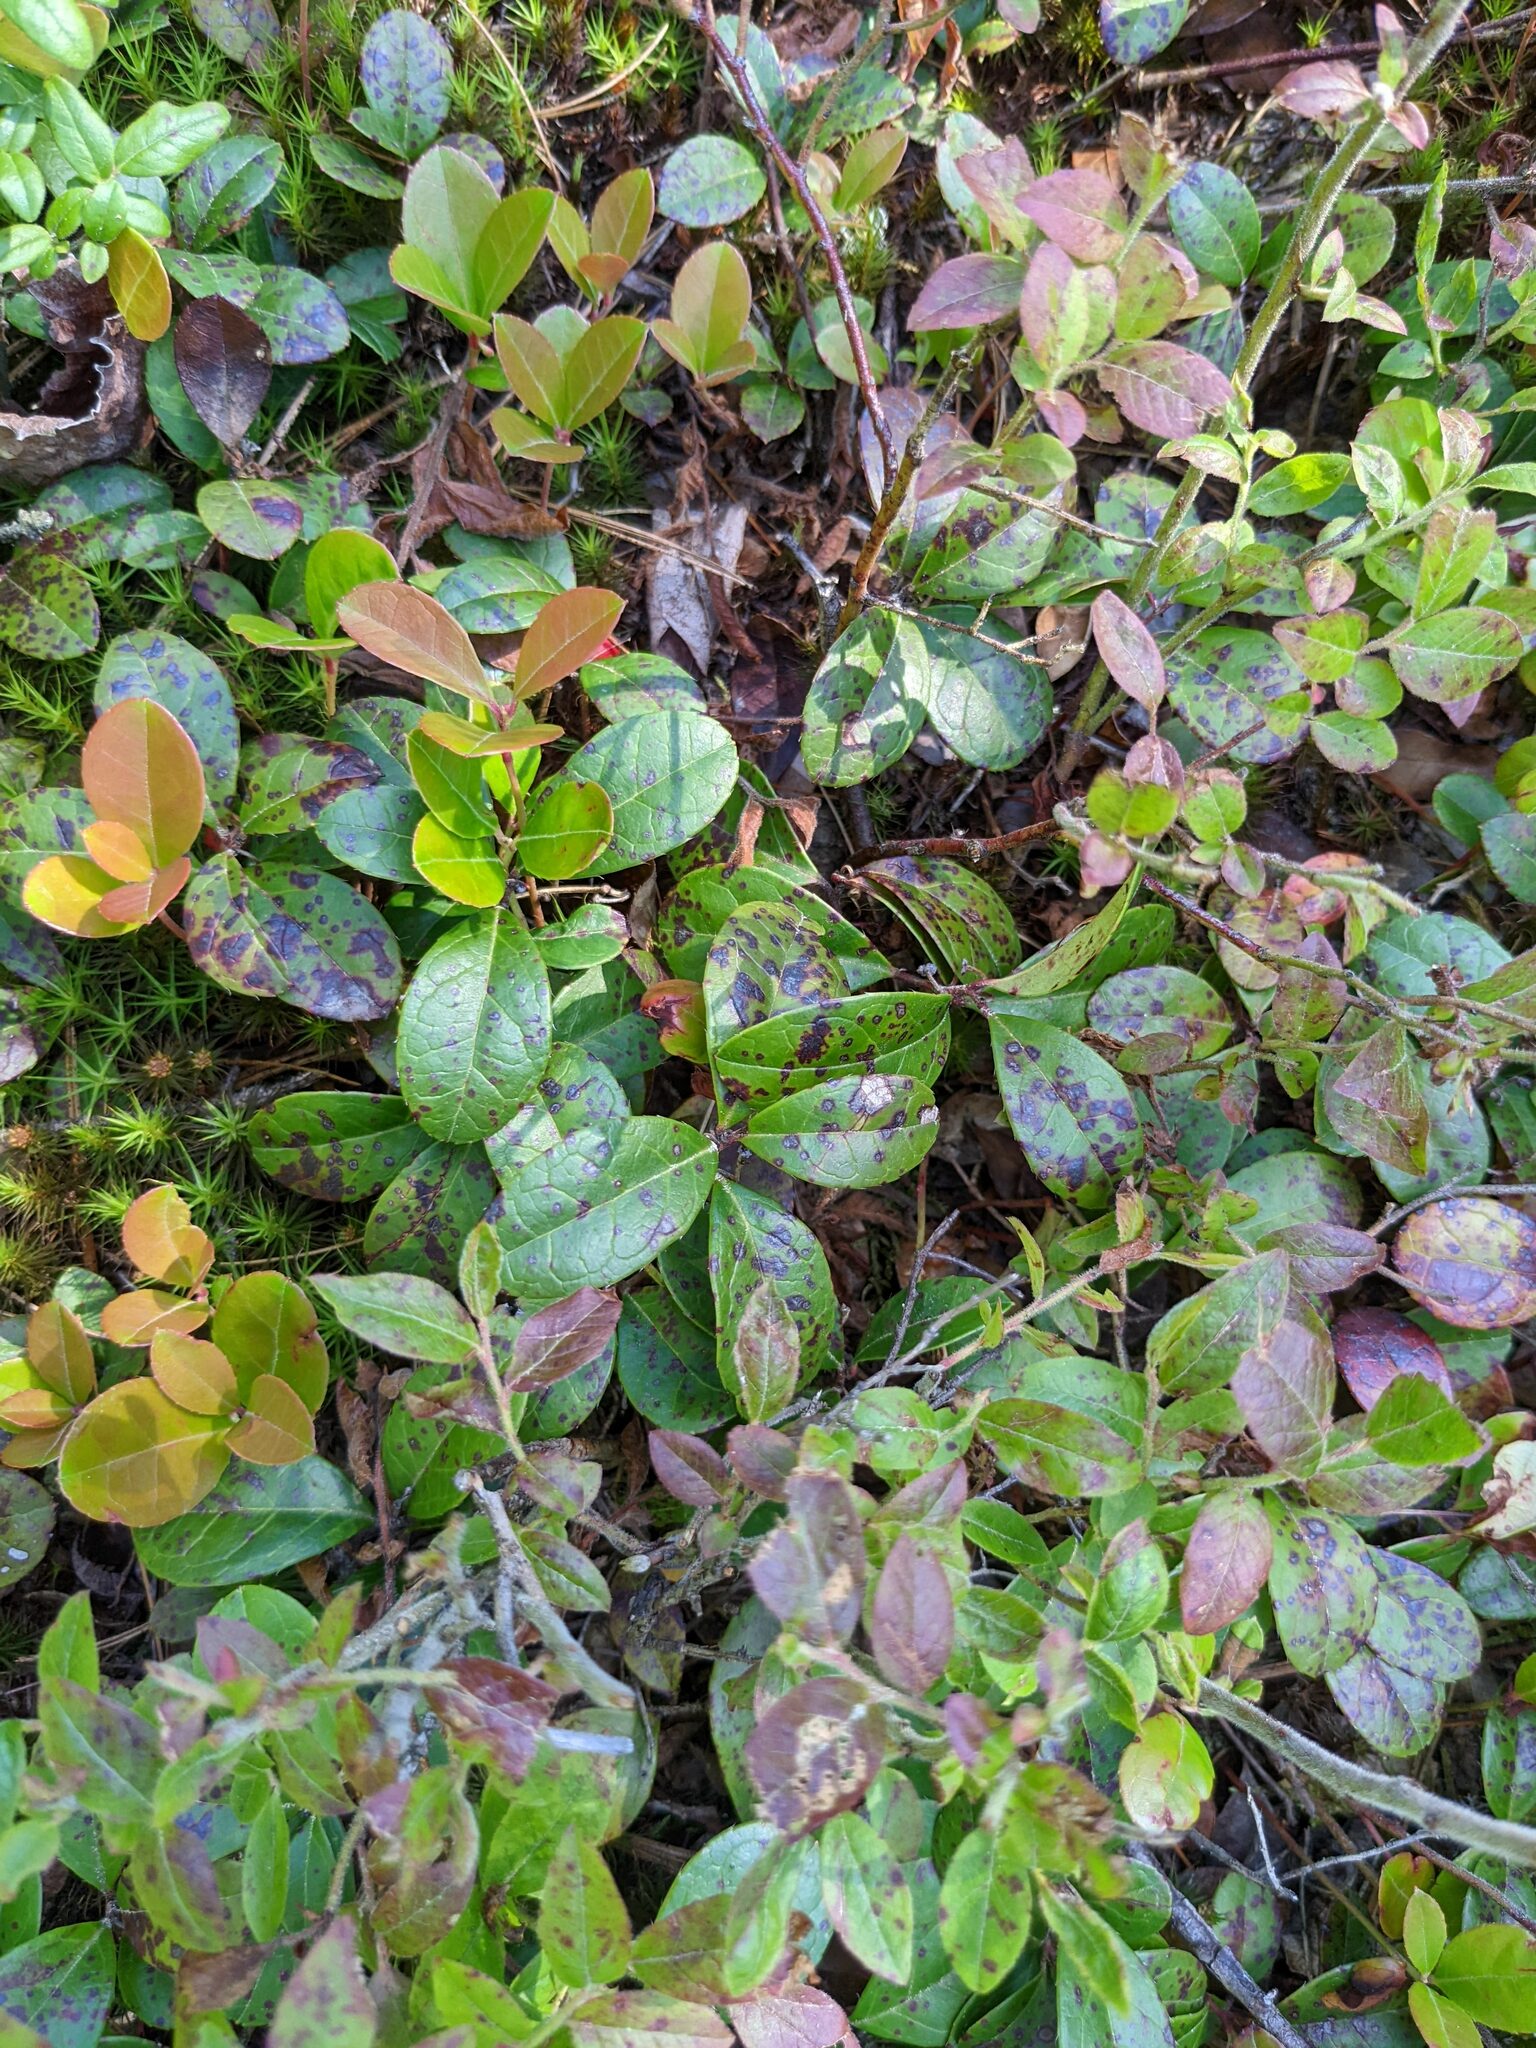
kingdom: Plantae
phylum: Tracheophyta
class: Magnoliopsida
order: Ericales
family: Ericaceae
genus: Gaultheria
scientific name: Gaultheria procumbens
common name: Checkerberry
